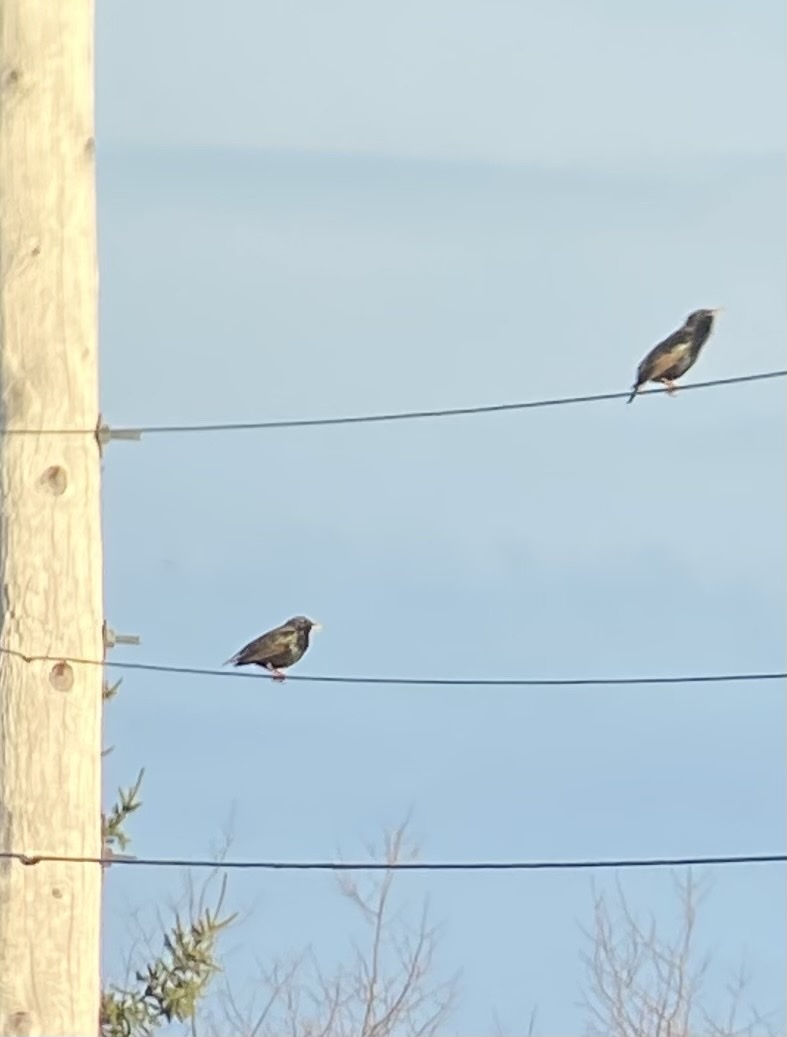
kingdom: Animalia
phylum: Chordata
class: Aves
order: Passeriformes
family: Sturnidae
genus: Sturnus
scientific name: Sturnus vulgaris
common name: Common starling
